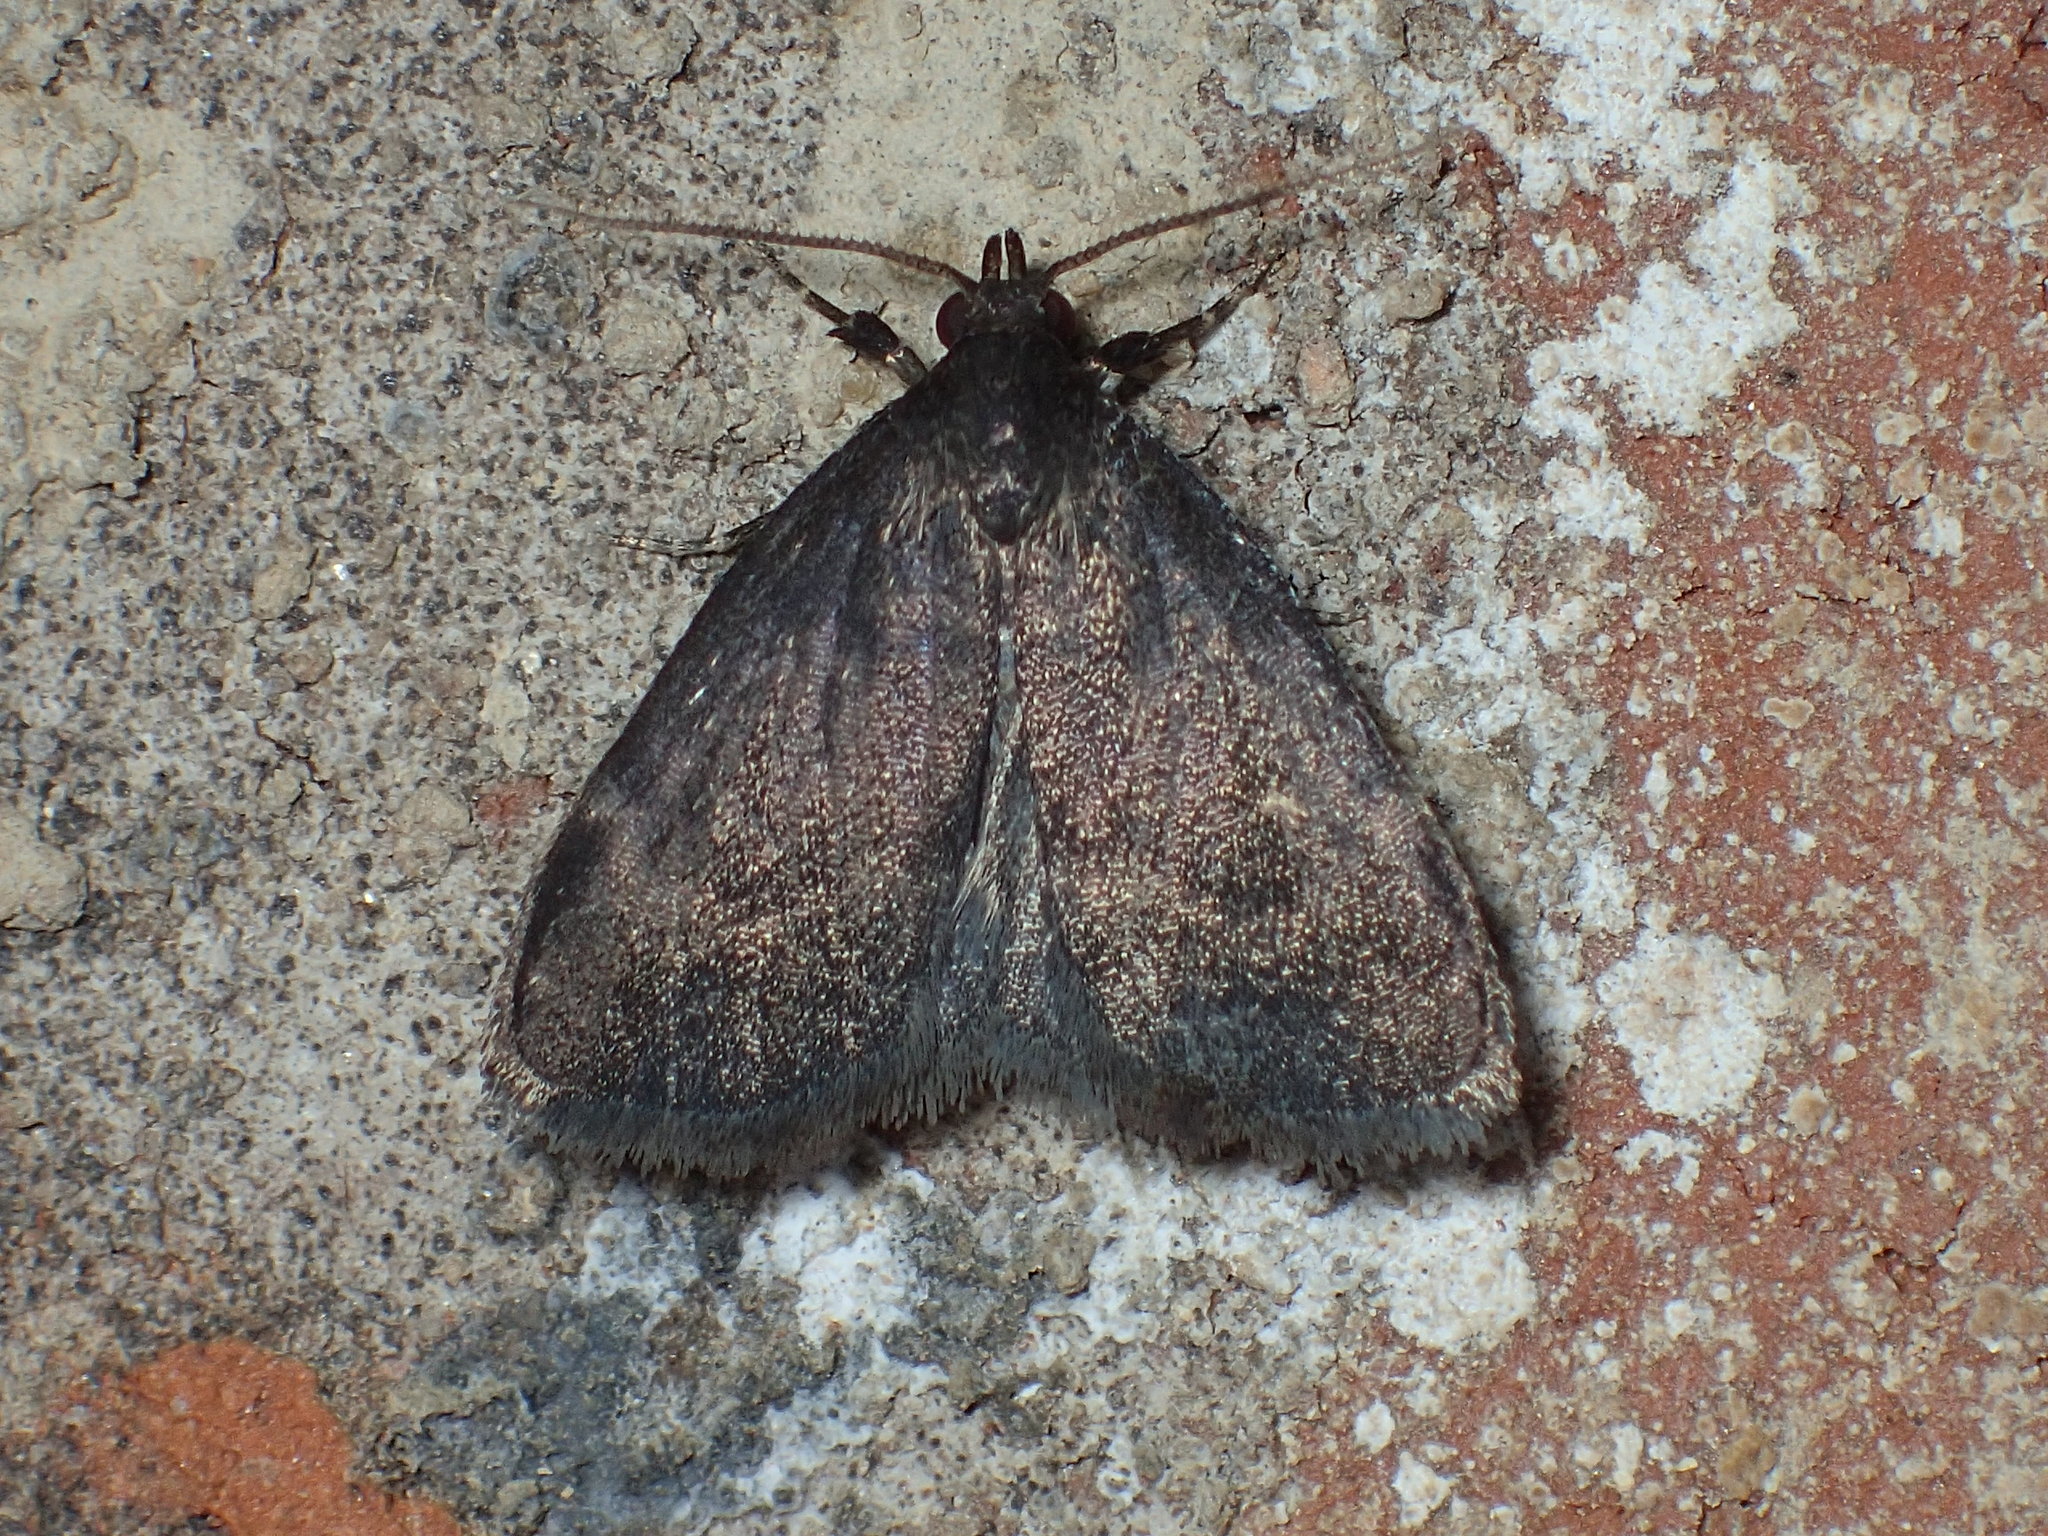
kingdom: Animalia
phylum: Arthropoda
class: Insecta
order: Lepidoptera
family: Erebidae
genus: Idia
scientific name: Idia rotundalis
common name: Rotund idia moth
